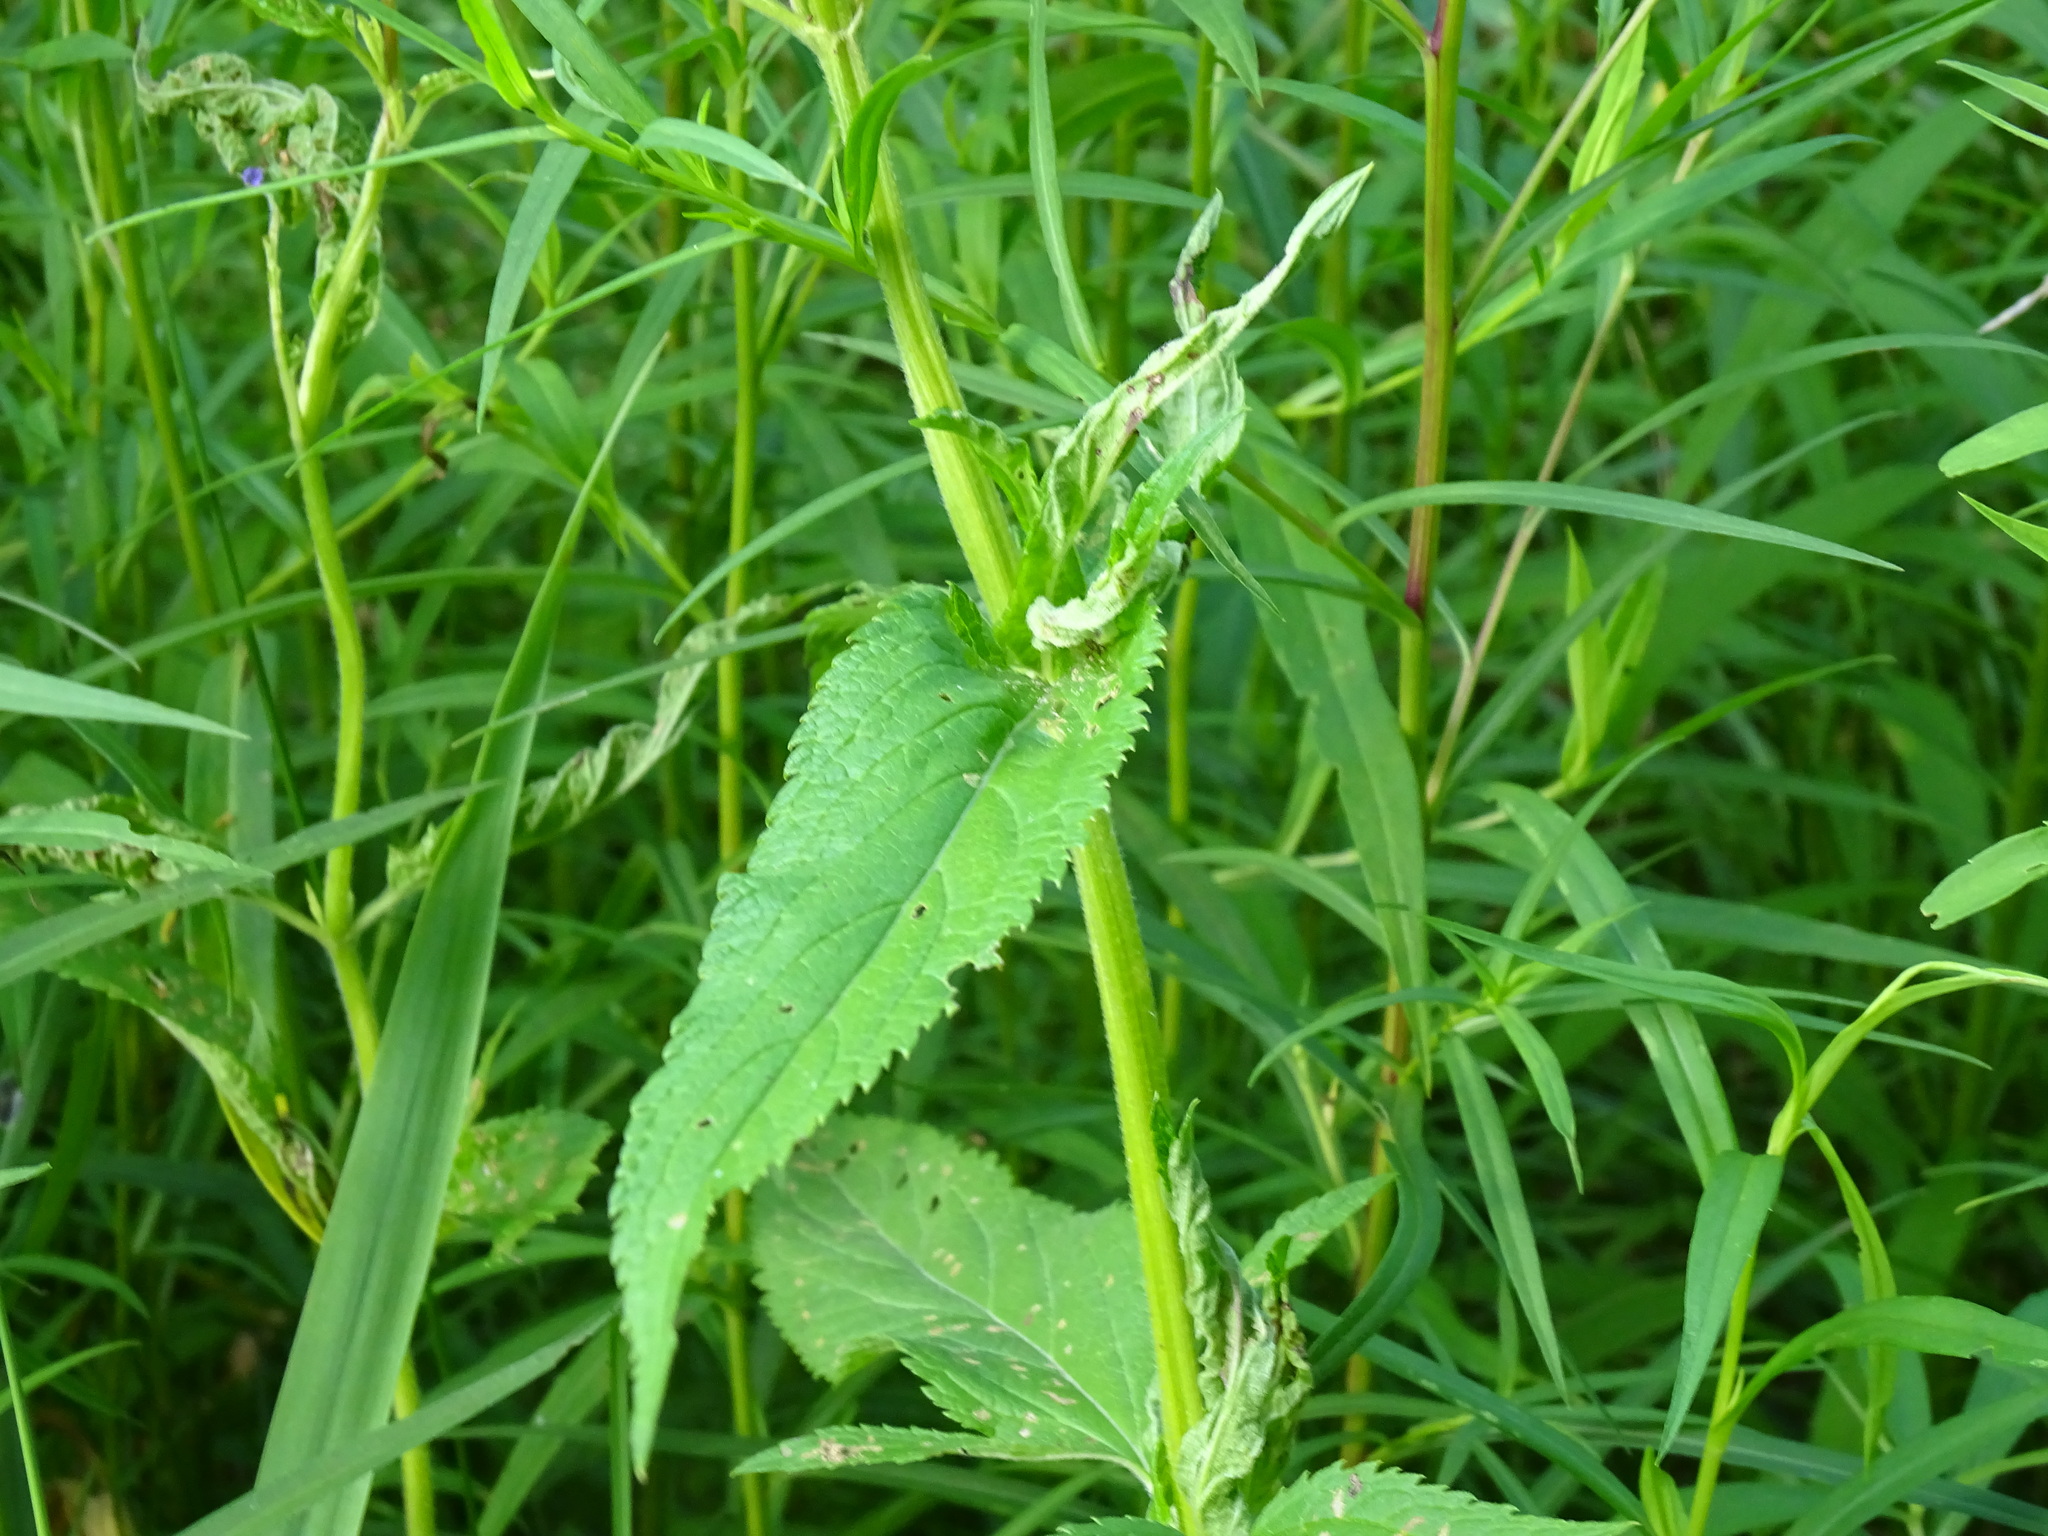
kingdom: Plantae
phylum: Tracheophyta
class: Magnoliopsida
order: Lamiales
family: Verbenaceae
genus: Verbena
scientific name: Verbena hastata
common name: American blue vervain
